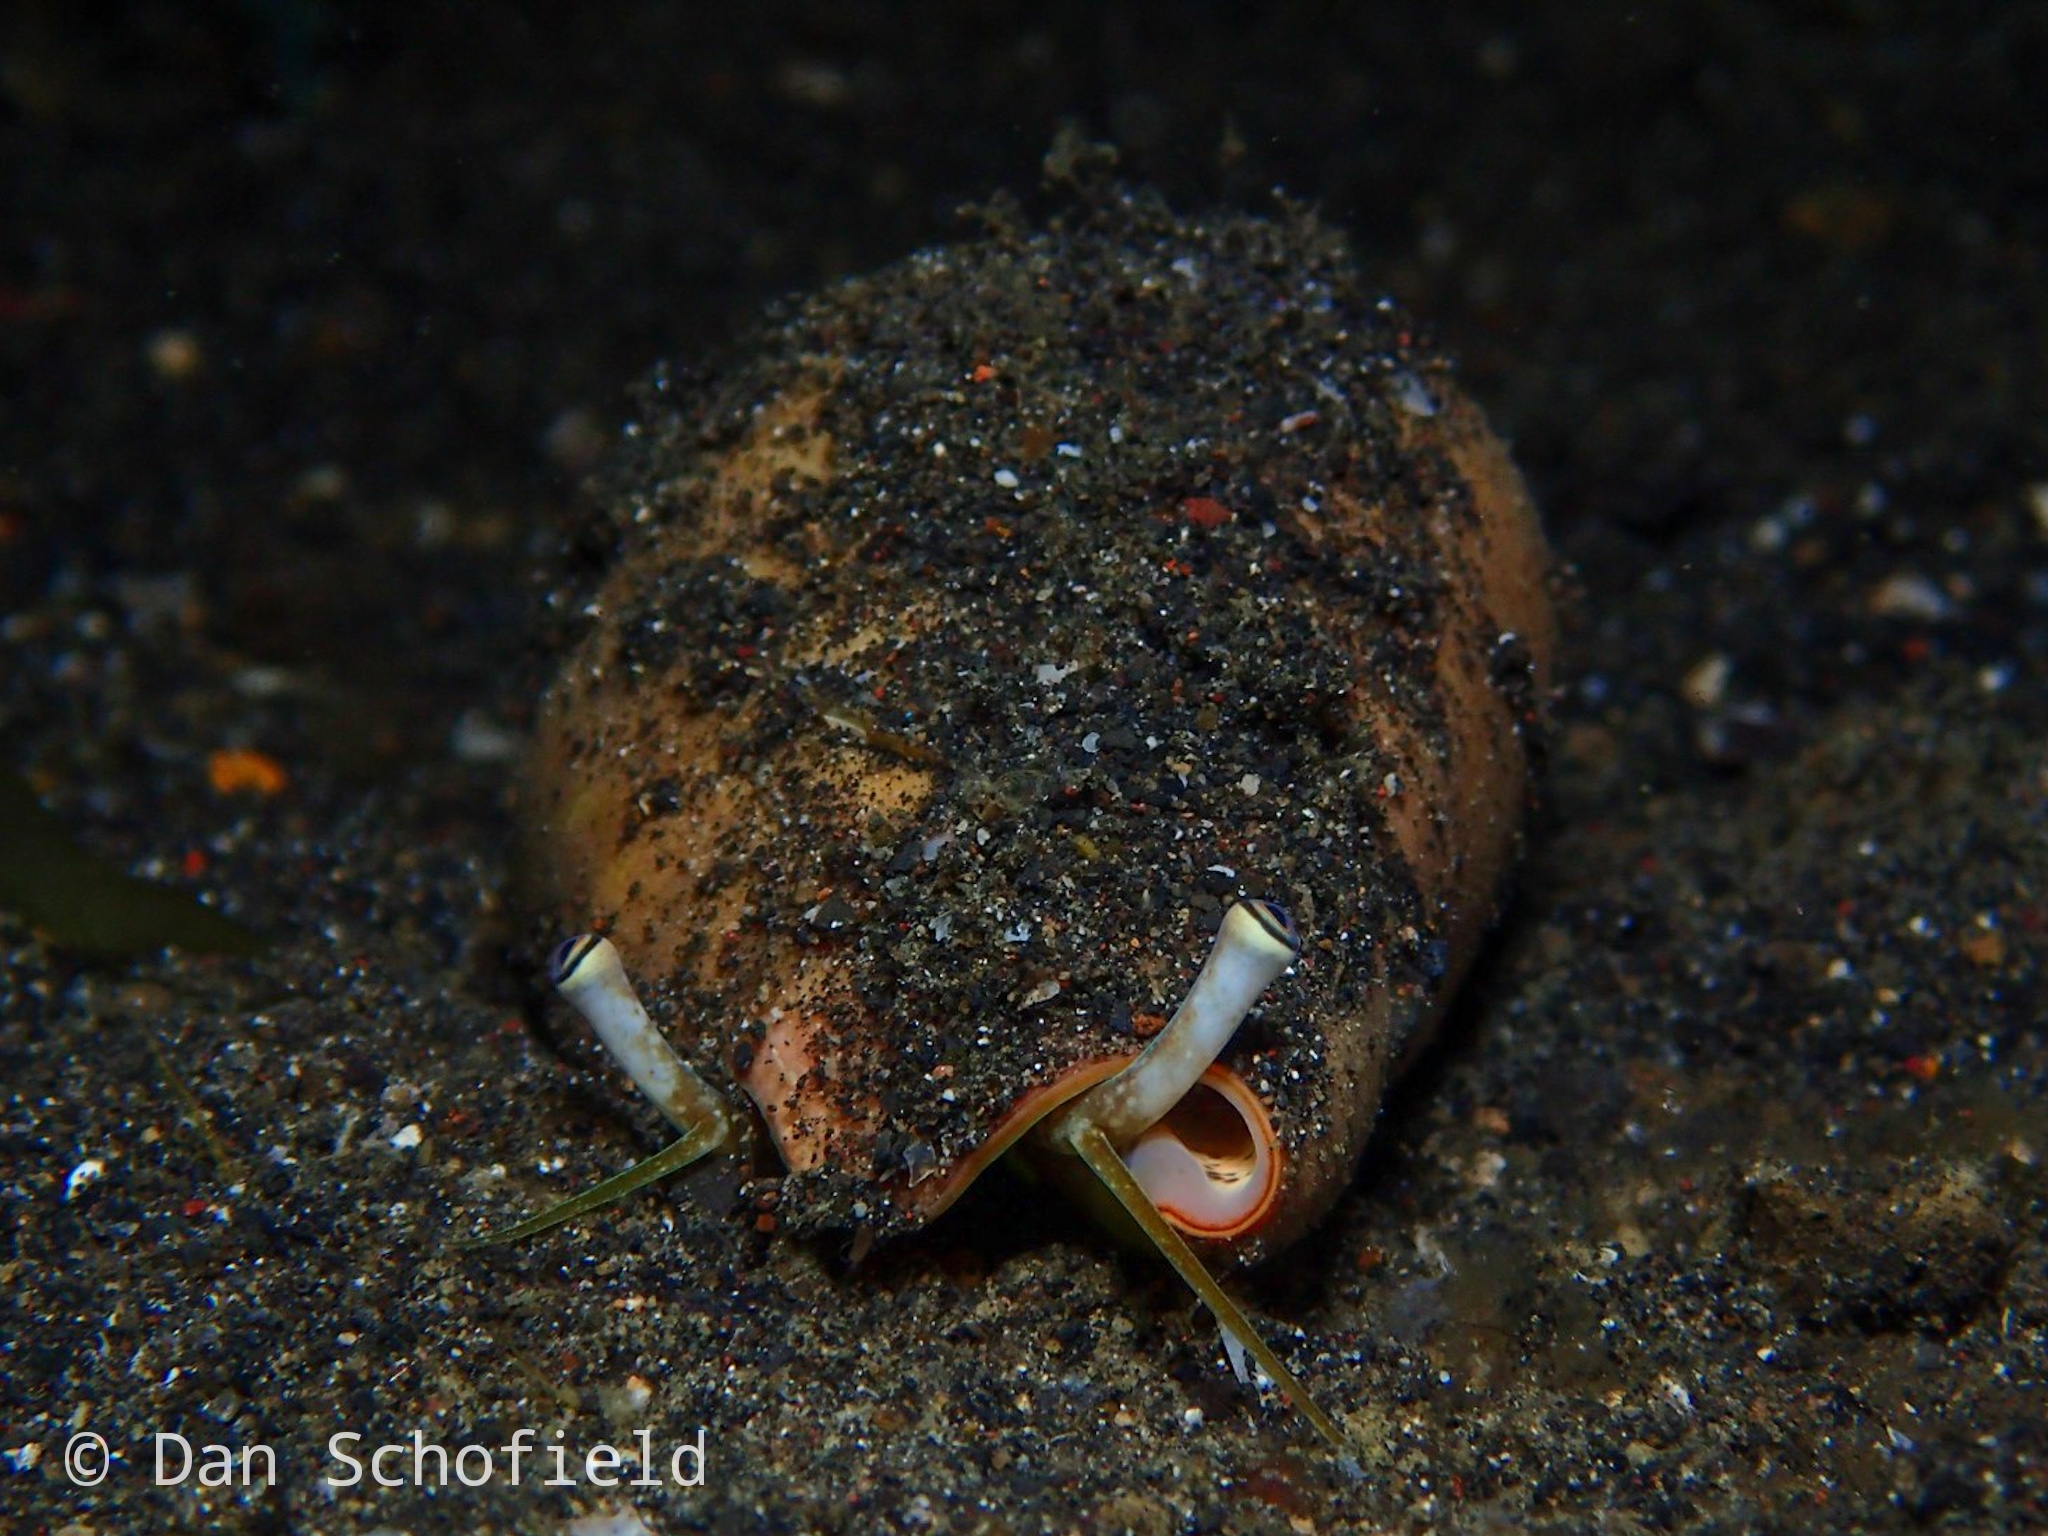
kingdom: Animalia
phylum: Mollusca
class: Gastropoda
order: Littorinimorpha
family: Strombidae
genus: Conomurex
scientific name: Conomurex luhuanus
